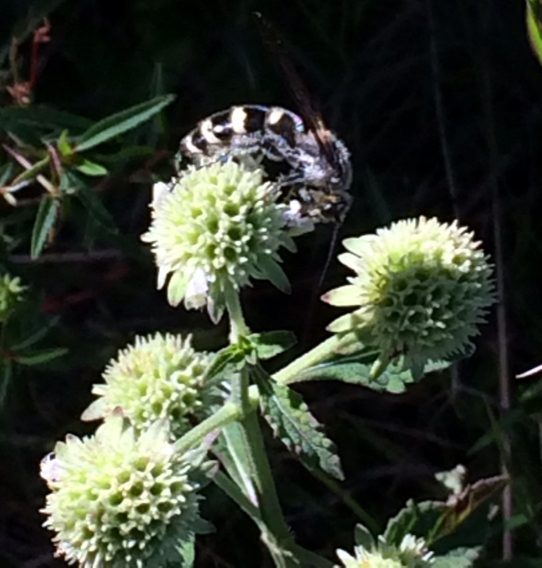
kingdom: Animalia
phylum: Arthropoda
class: Insecta
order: Hymenoptera
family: Scoliidae
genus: Dielis
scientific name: Dielis
